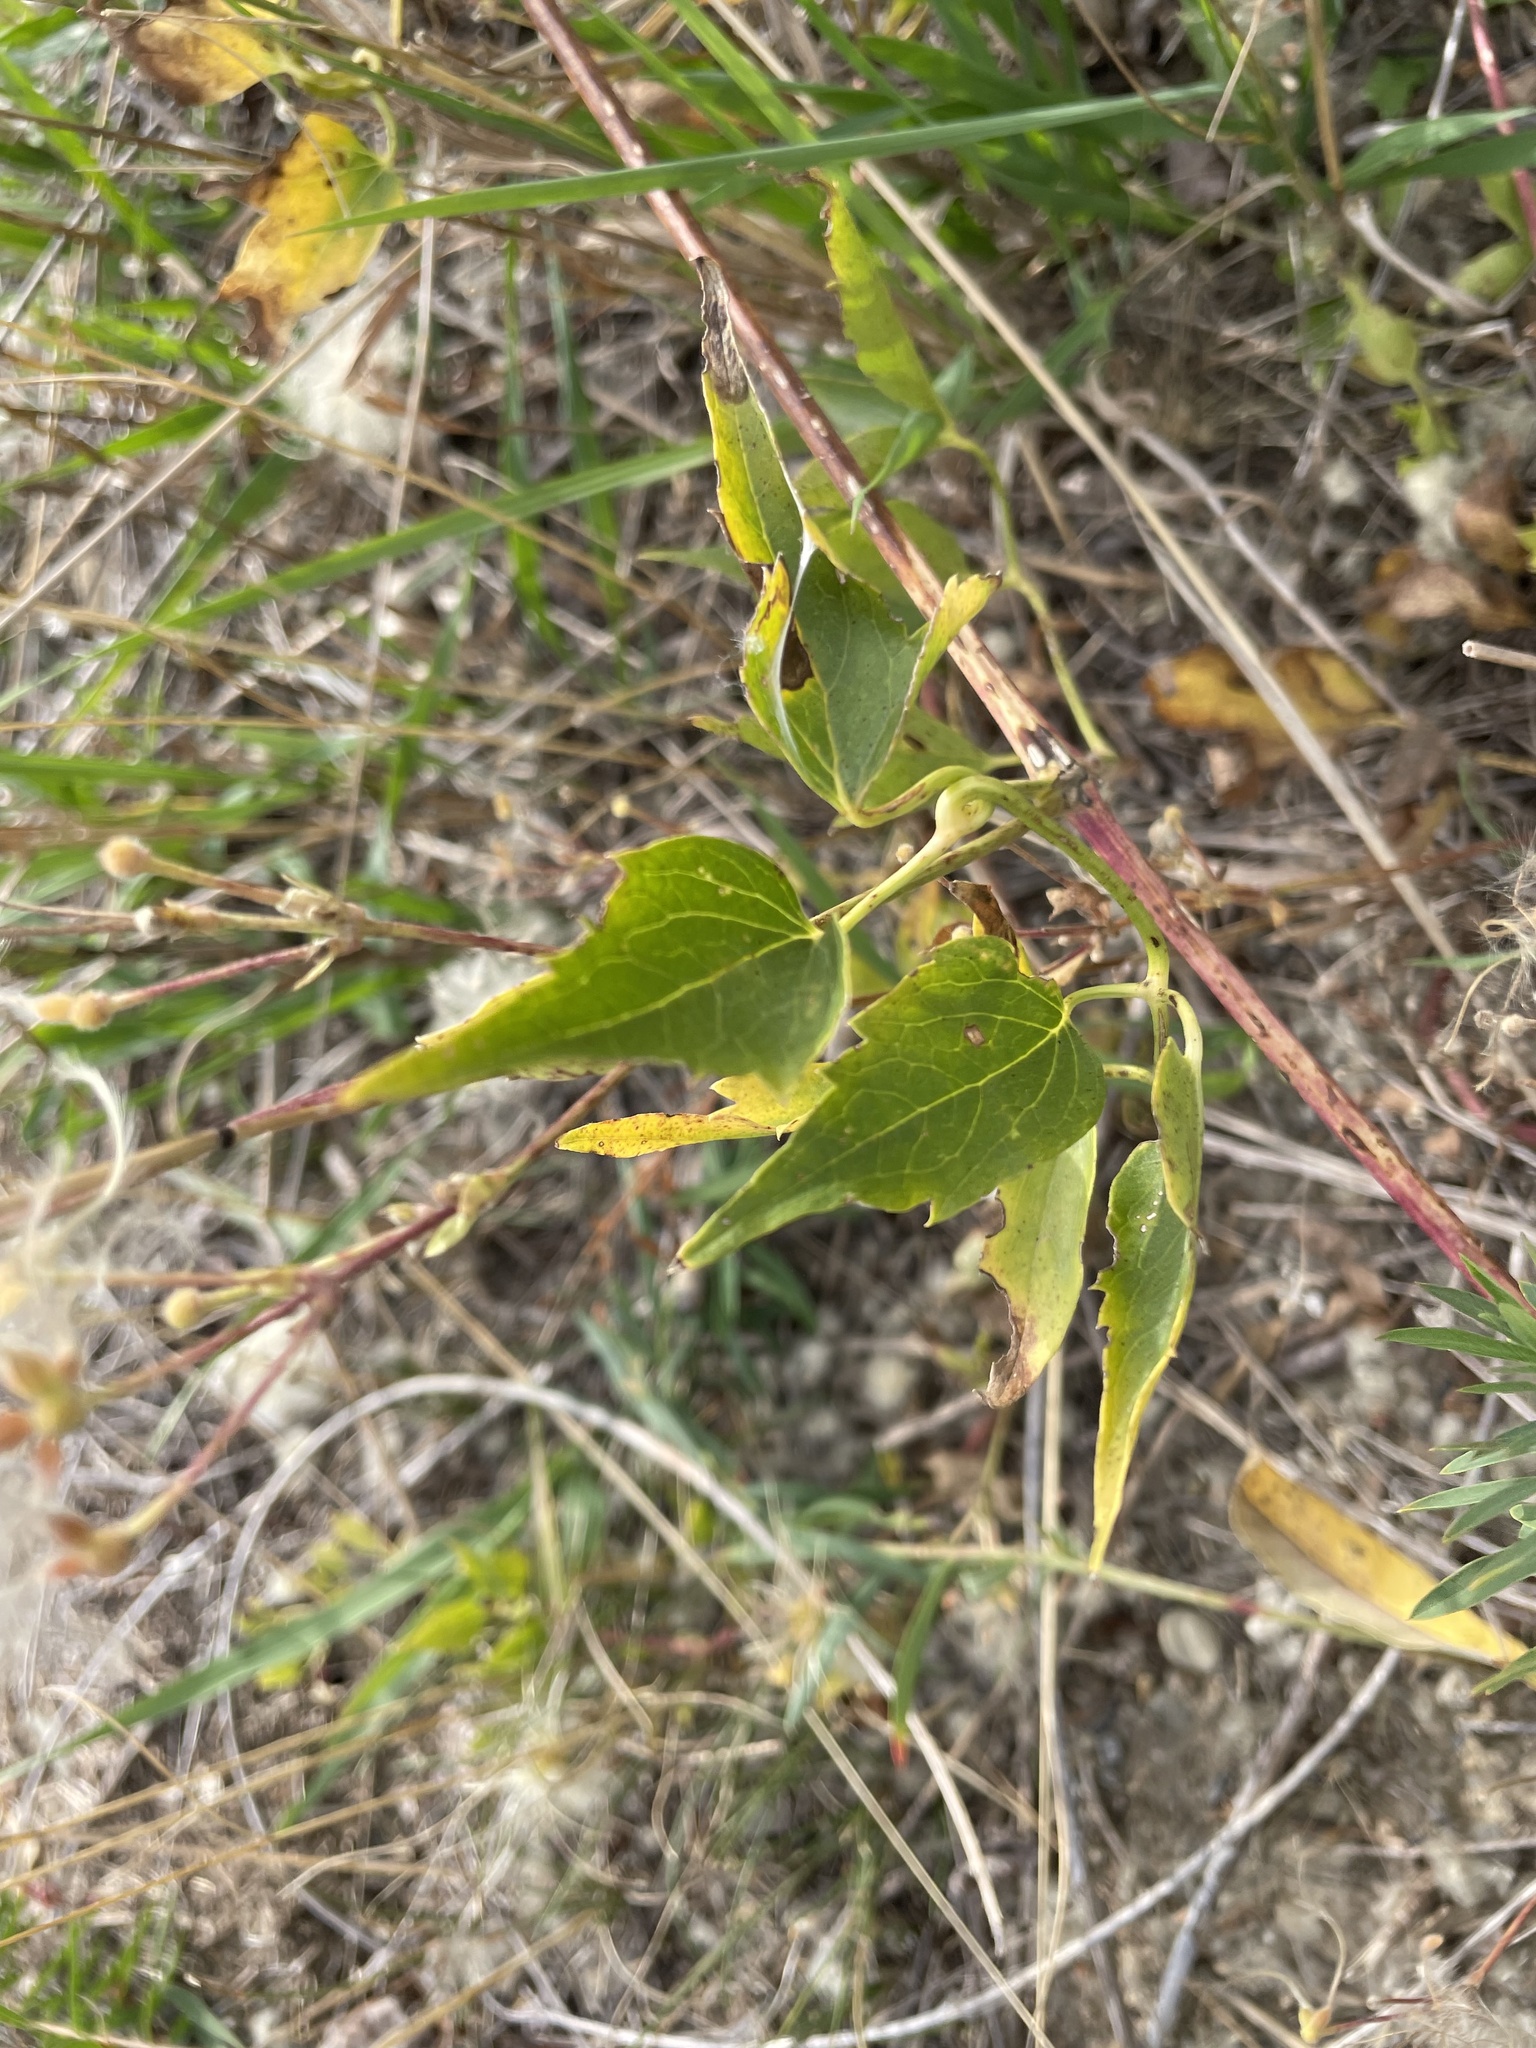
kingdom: Plantae
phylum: Tracheophyta
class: Magnoliopsida
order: Ranunculales
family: Ranunculaceae
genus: Clematis
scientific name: Clematis ligusticifolia
